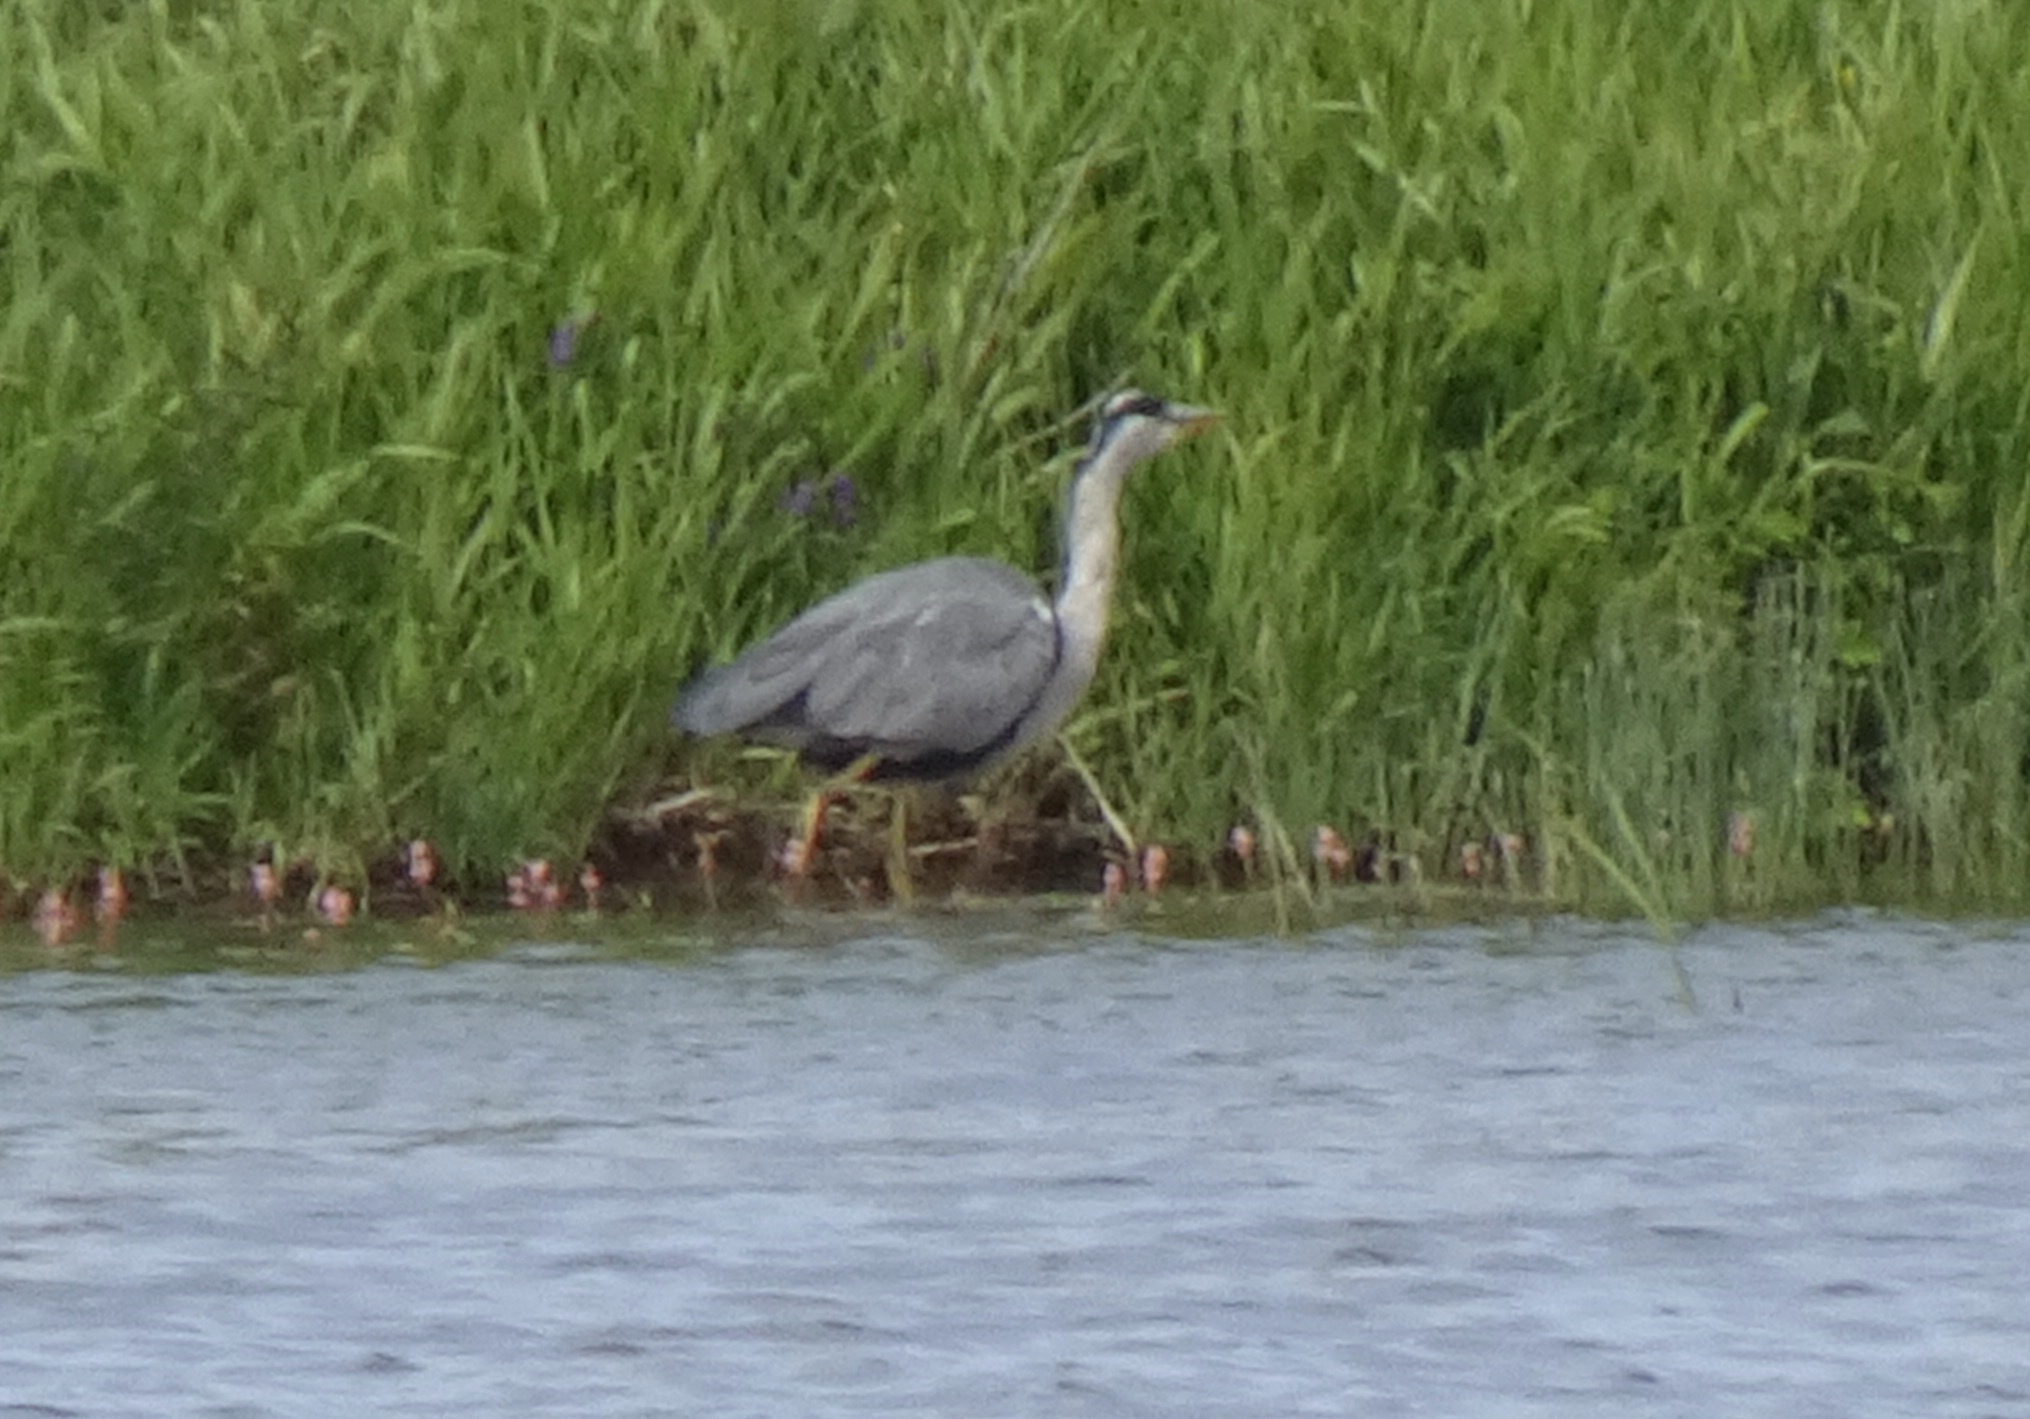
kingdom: Animalia
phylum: Chordata
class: Aves
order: Pelecaniformes
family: Ardeidae
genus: Ardea
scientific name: Ardea cinerea
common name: Grey heron
